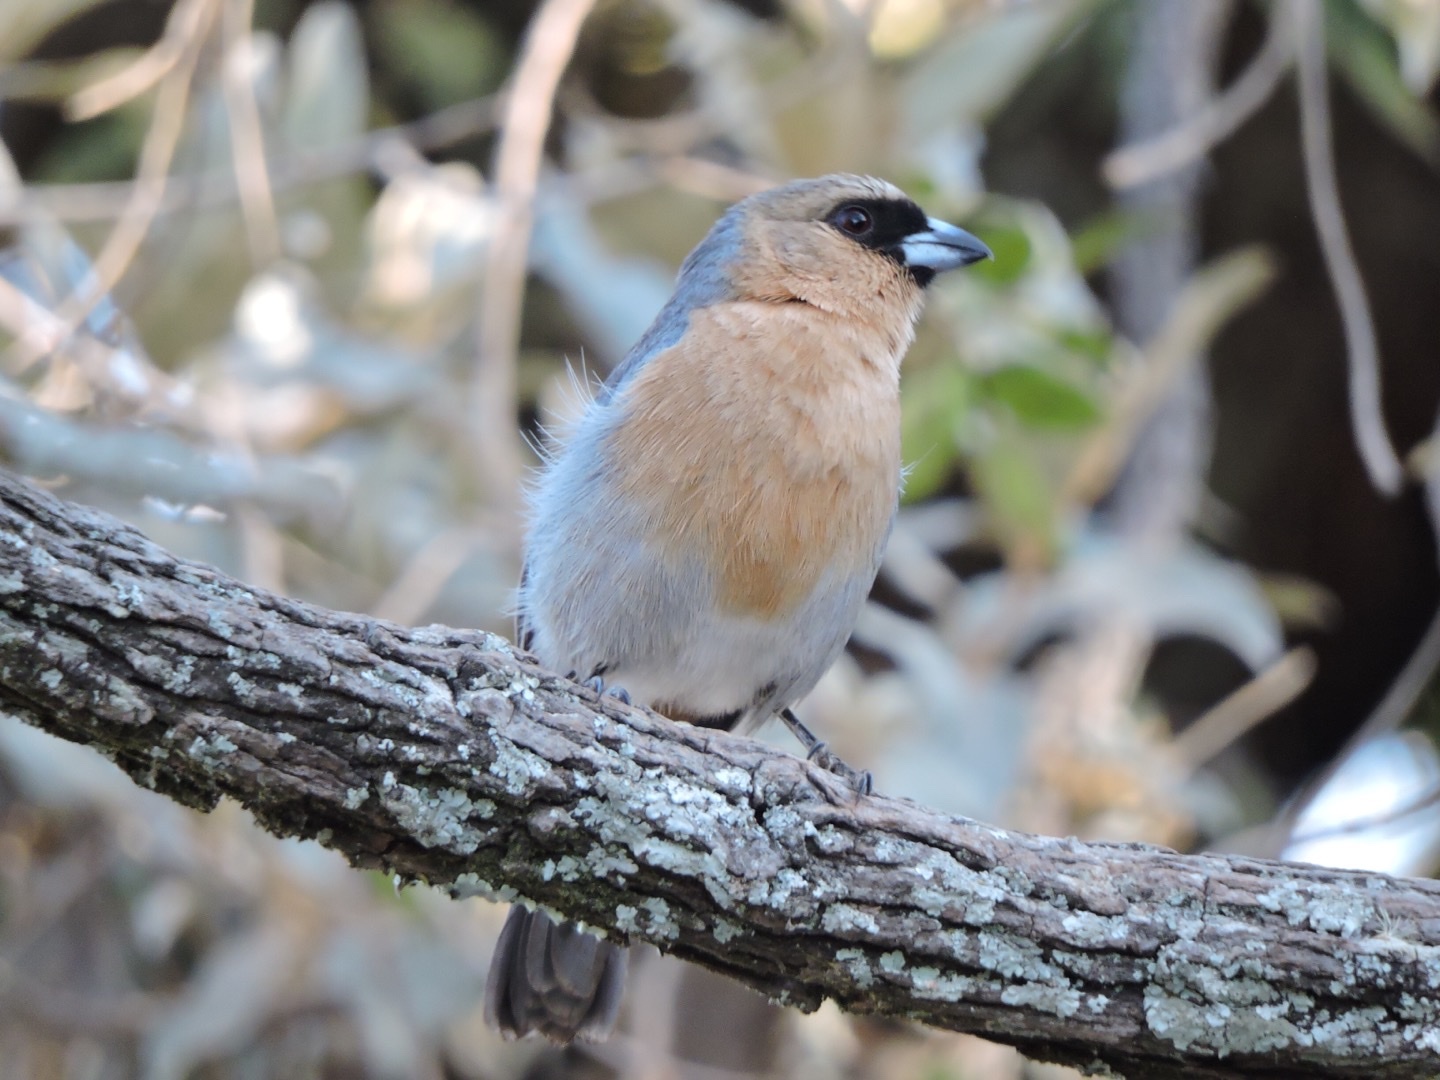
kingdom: Animalia
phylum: Chordata
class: Aves
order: Passeriformes
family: Thraupidae
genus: Schistochlamys
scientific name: Schistochlamys ruficapillus
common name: Cinnamon tanager
